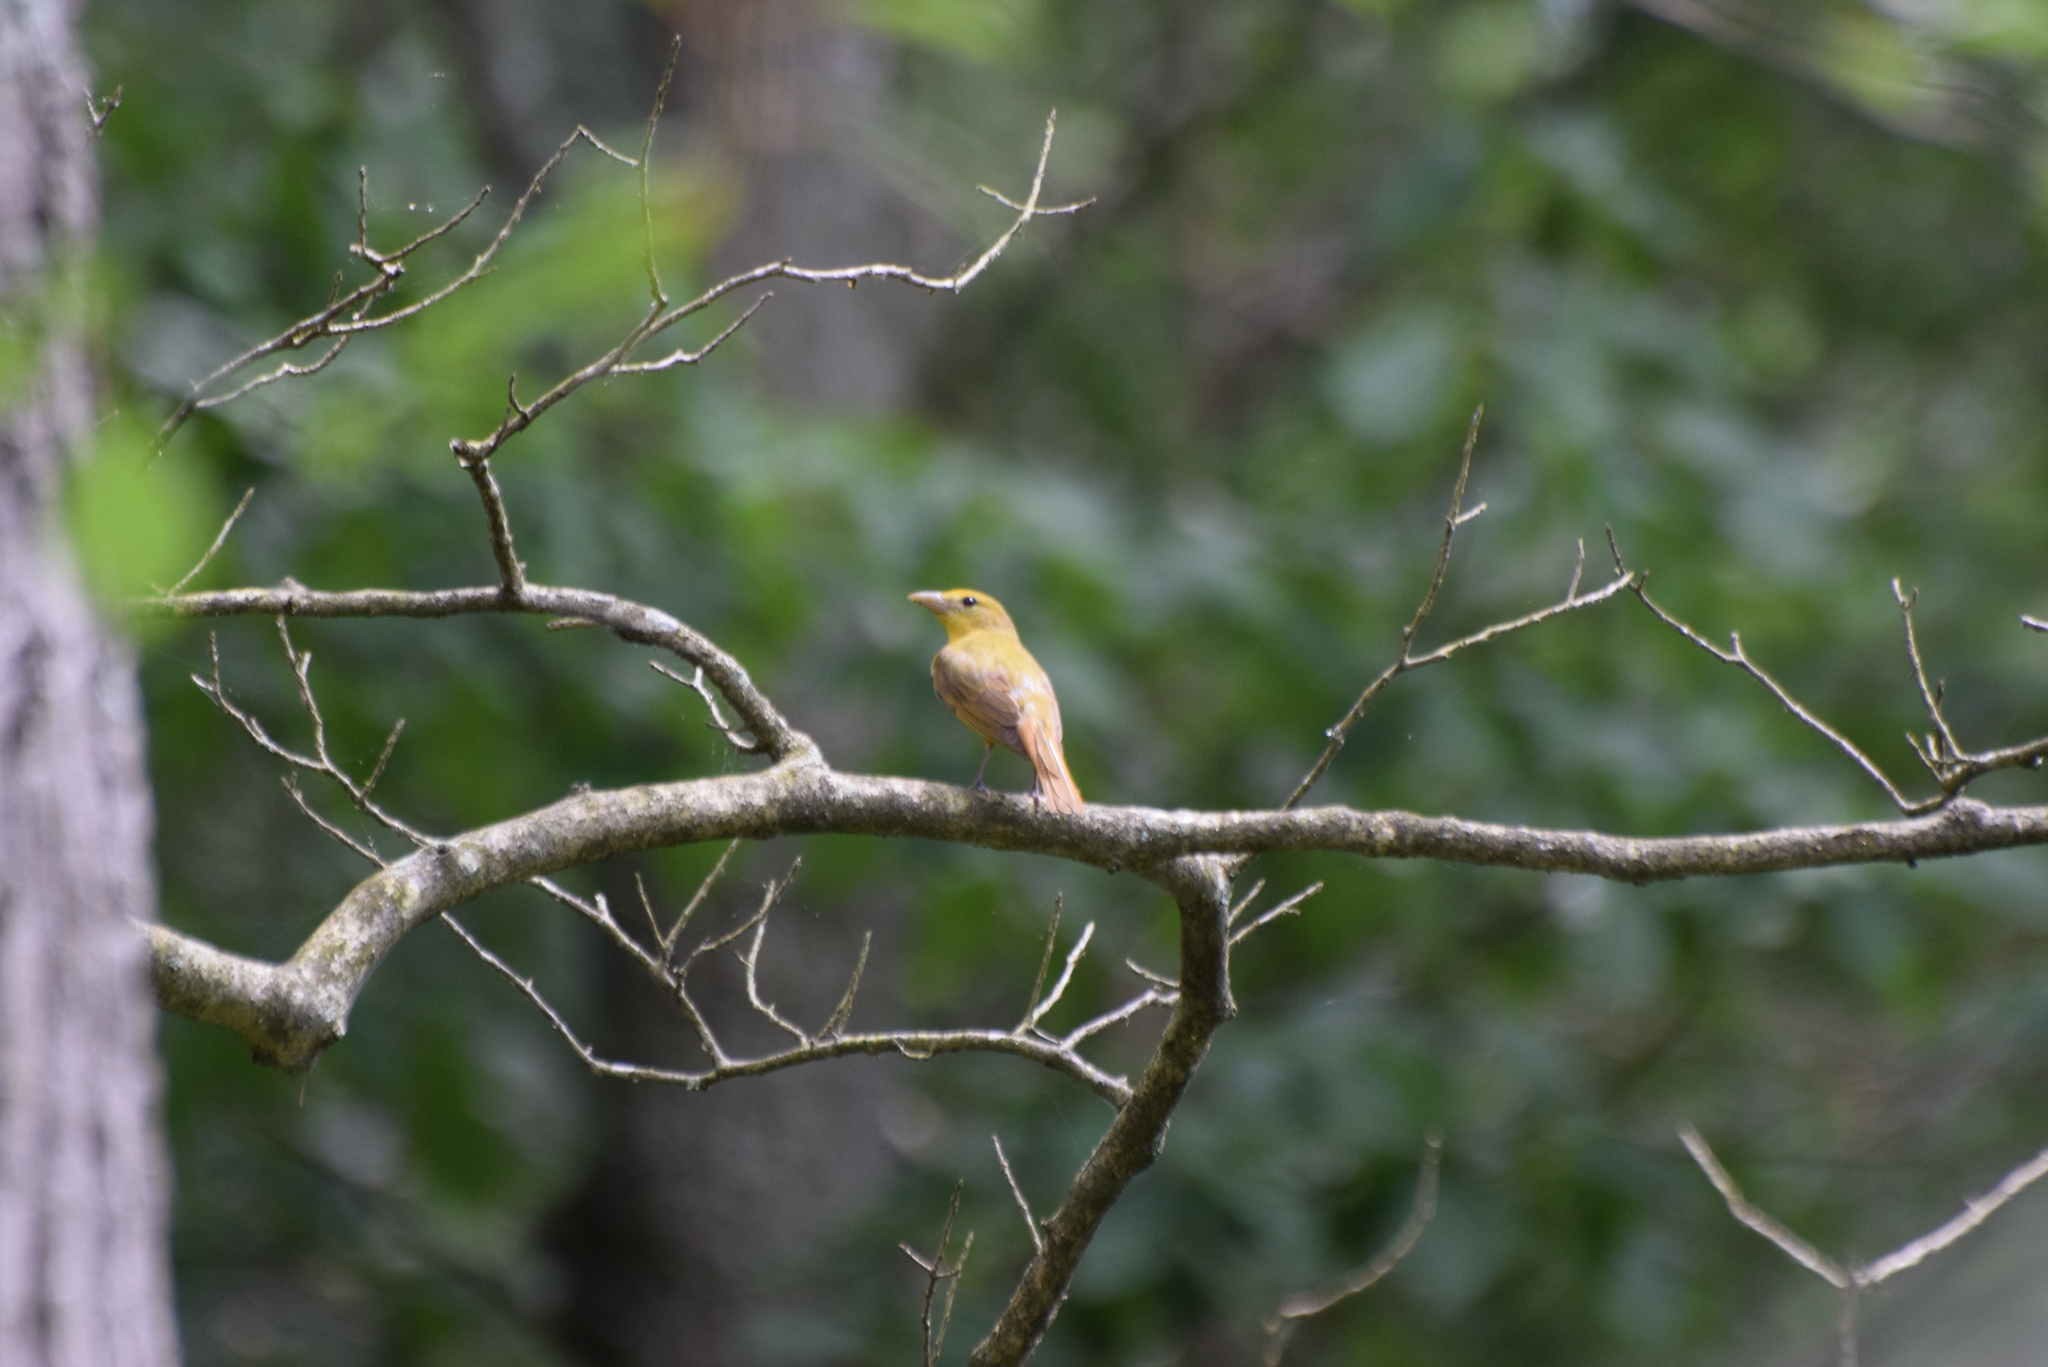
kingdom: Animalia
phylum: Chordata
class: Aves
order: Passeriformes
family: Cardinalidae
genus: Piranga
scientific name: Piranga rubra
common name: Summer tanager
